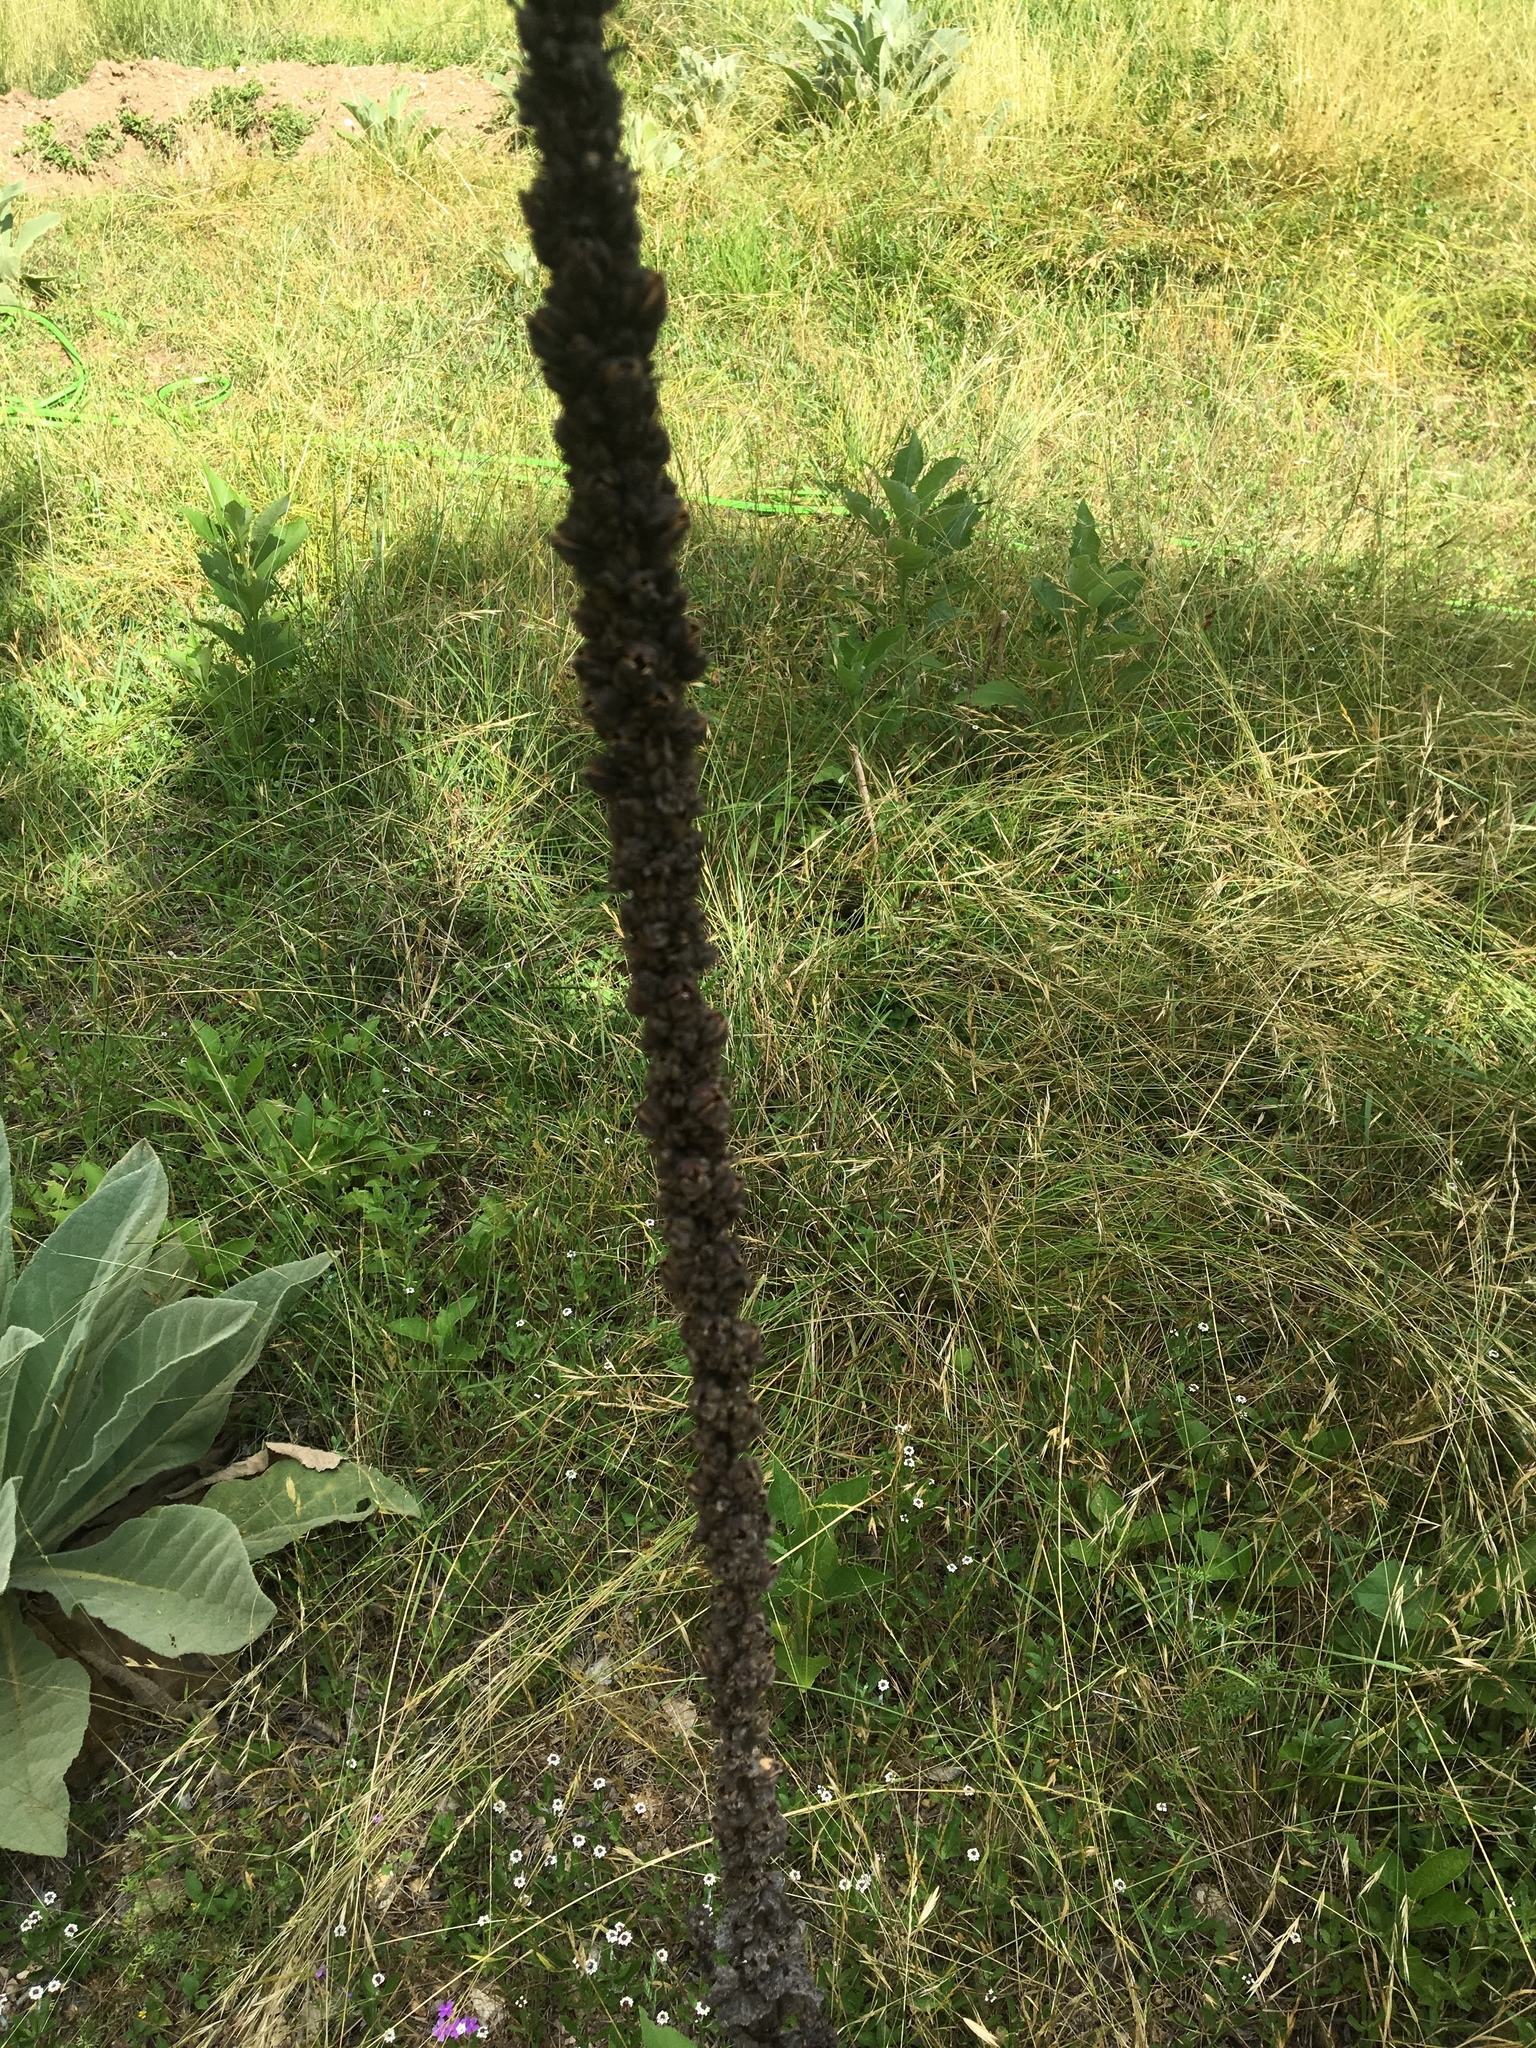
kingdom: Plantae
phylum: Tracheophyta
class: Magnoliopsida
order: Lamiales
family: Scrophulariaceae
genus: Verbascum
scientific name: Verbascum thapsus
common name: Common mullein
